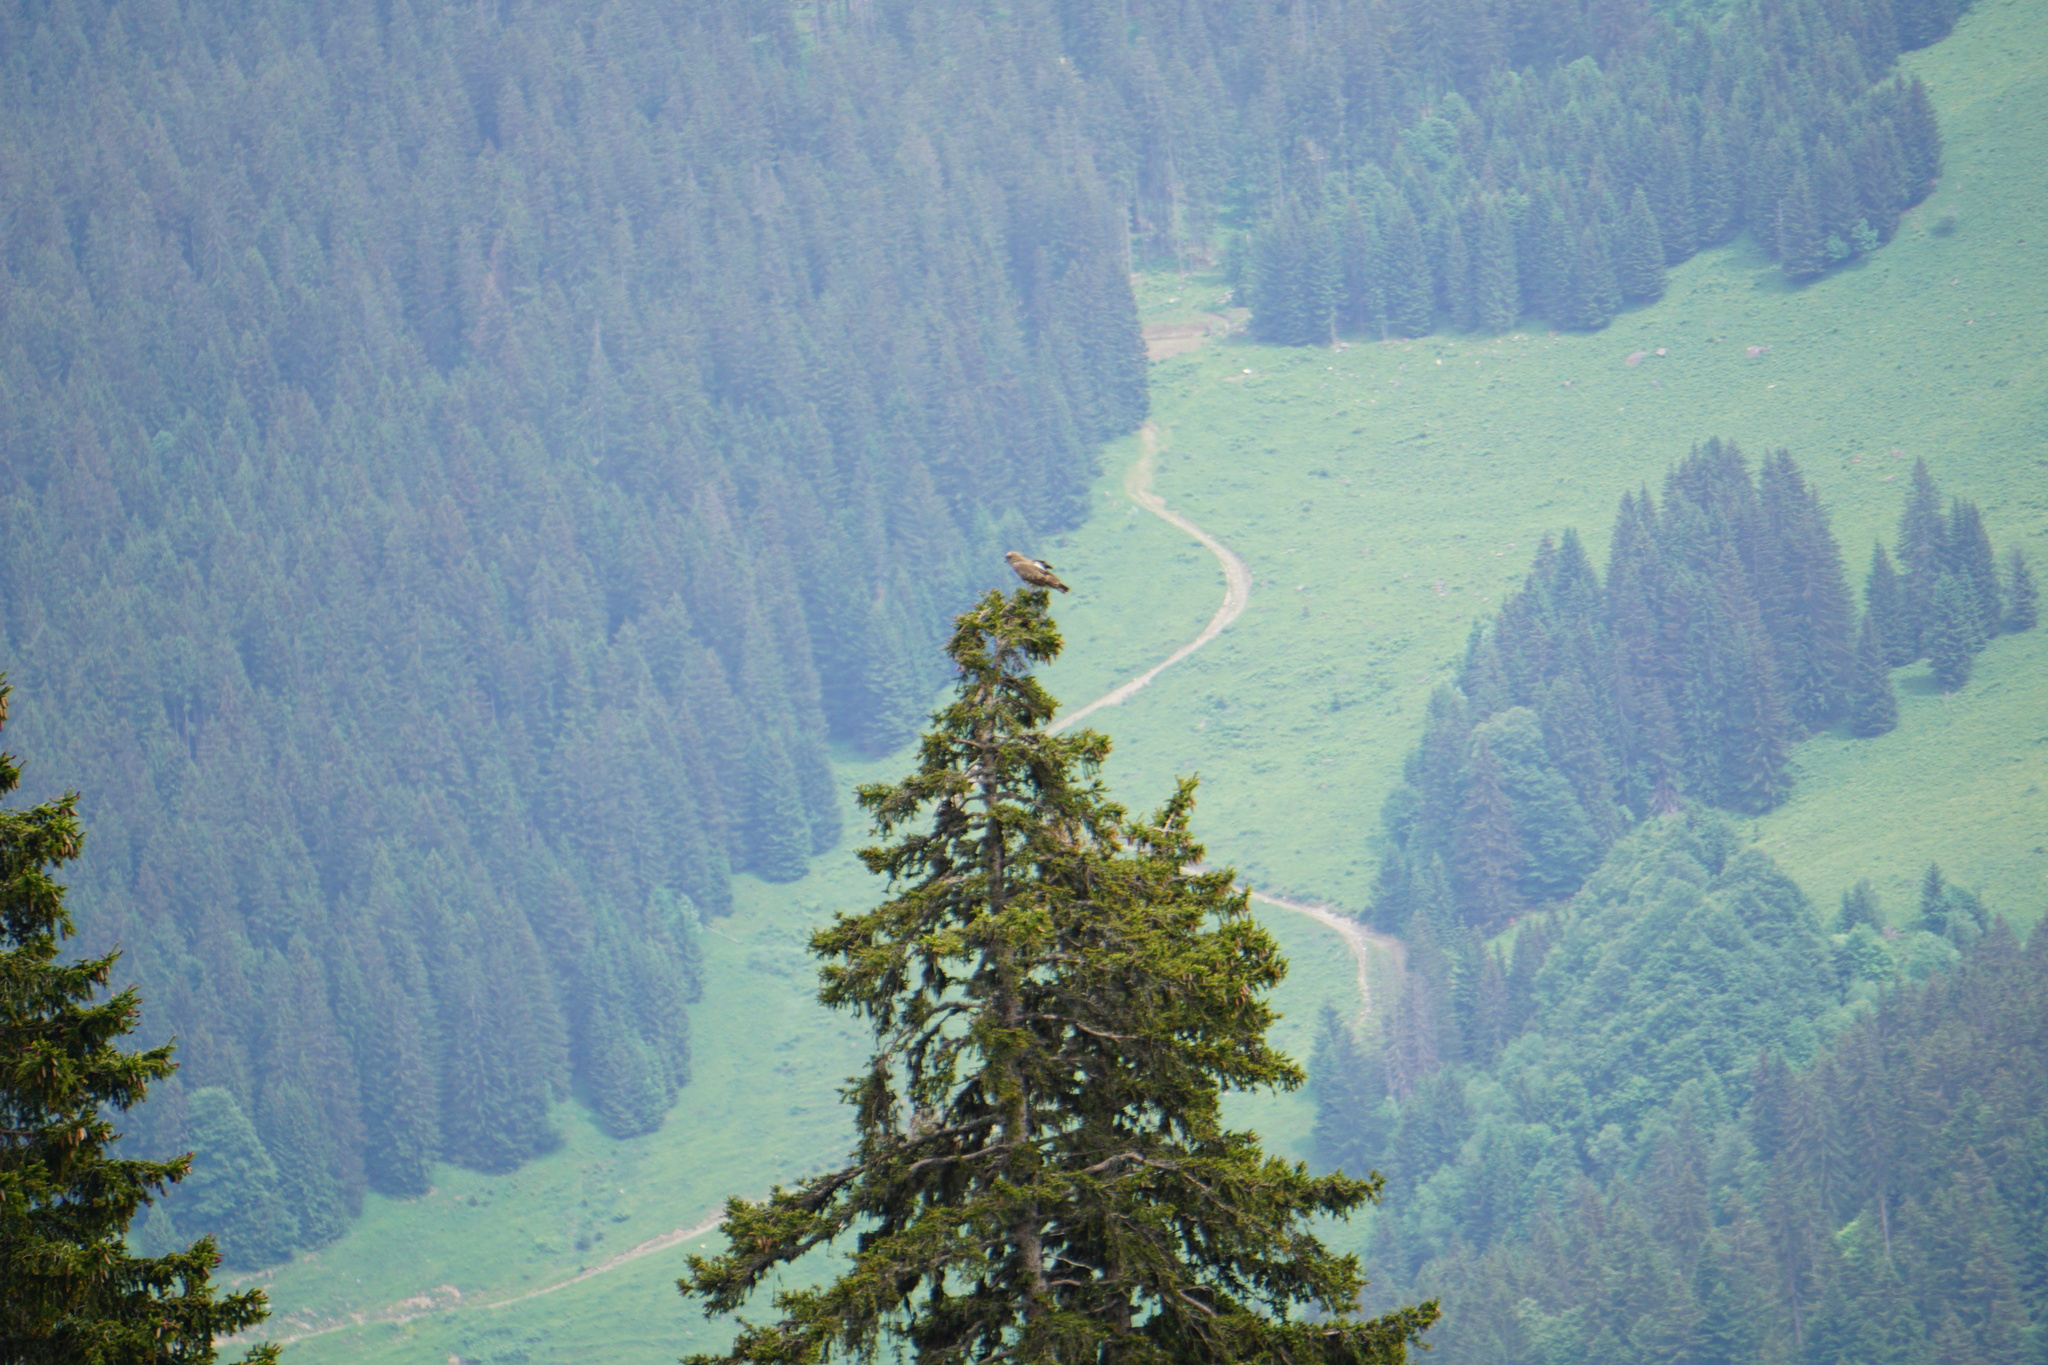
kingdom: Animalia
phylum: Chordata
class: Aves
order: Accipitriformes
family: Accipitridae
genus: Circaetus
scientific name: Circaetus gallicus
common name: Short-toed snake eagle
